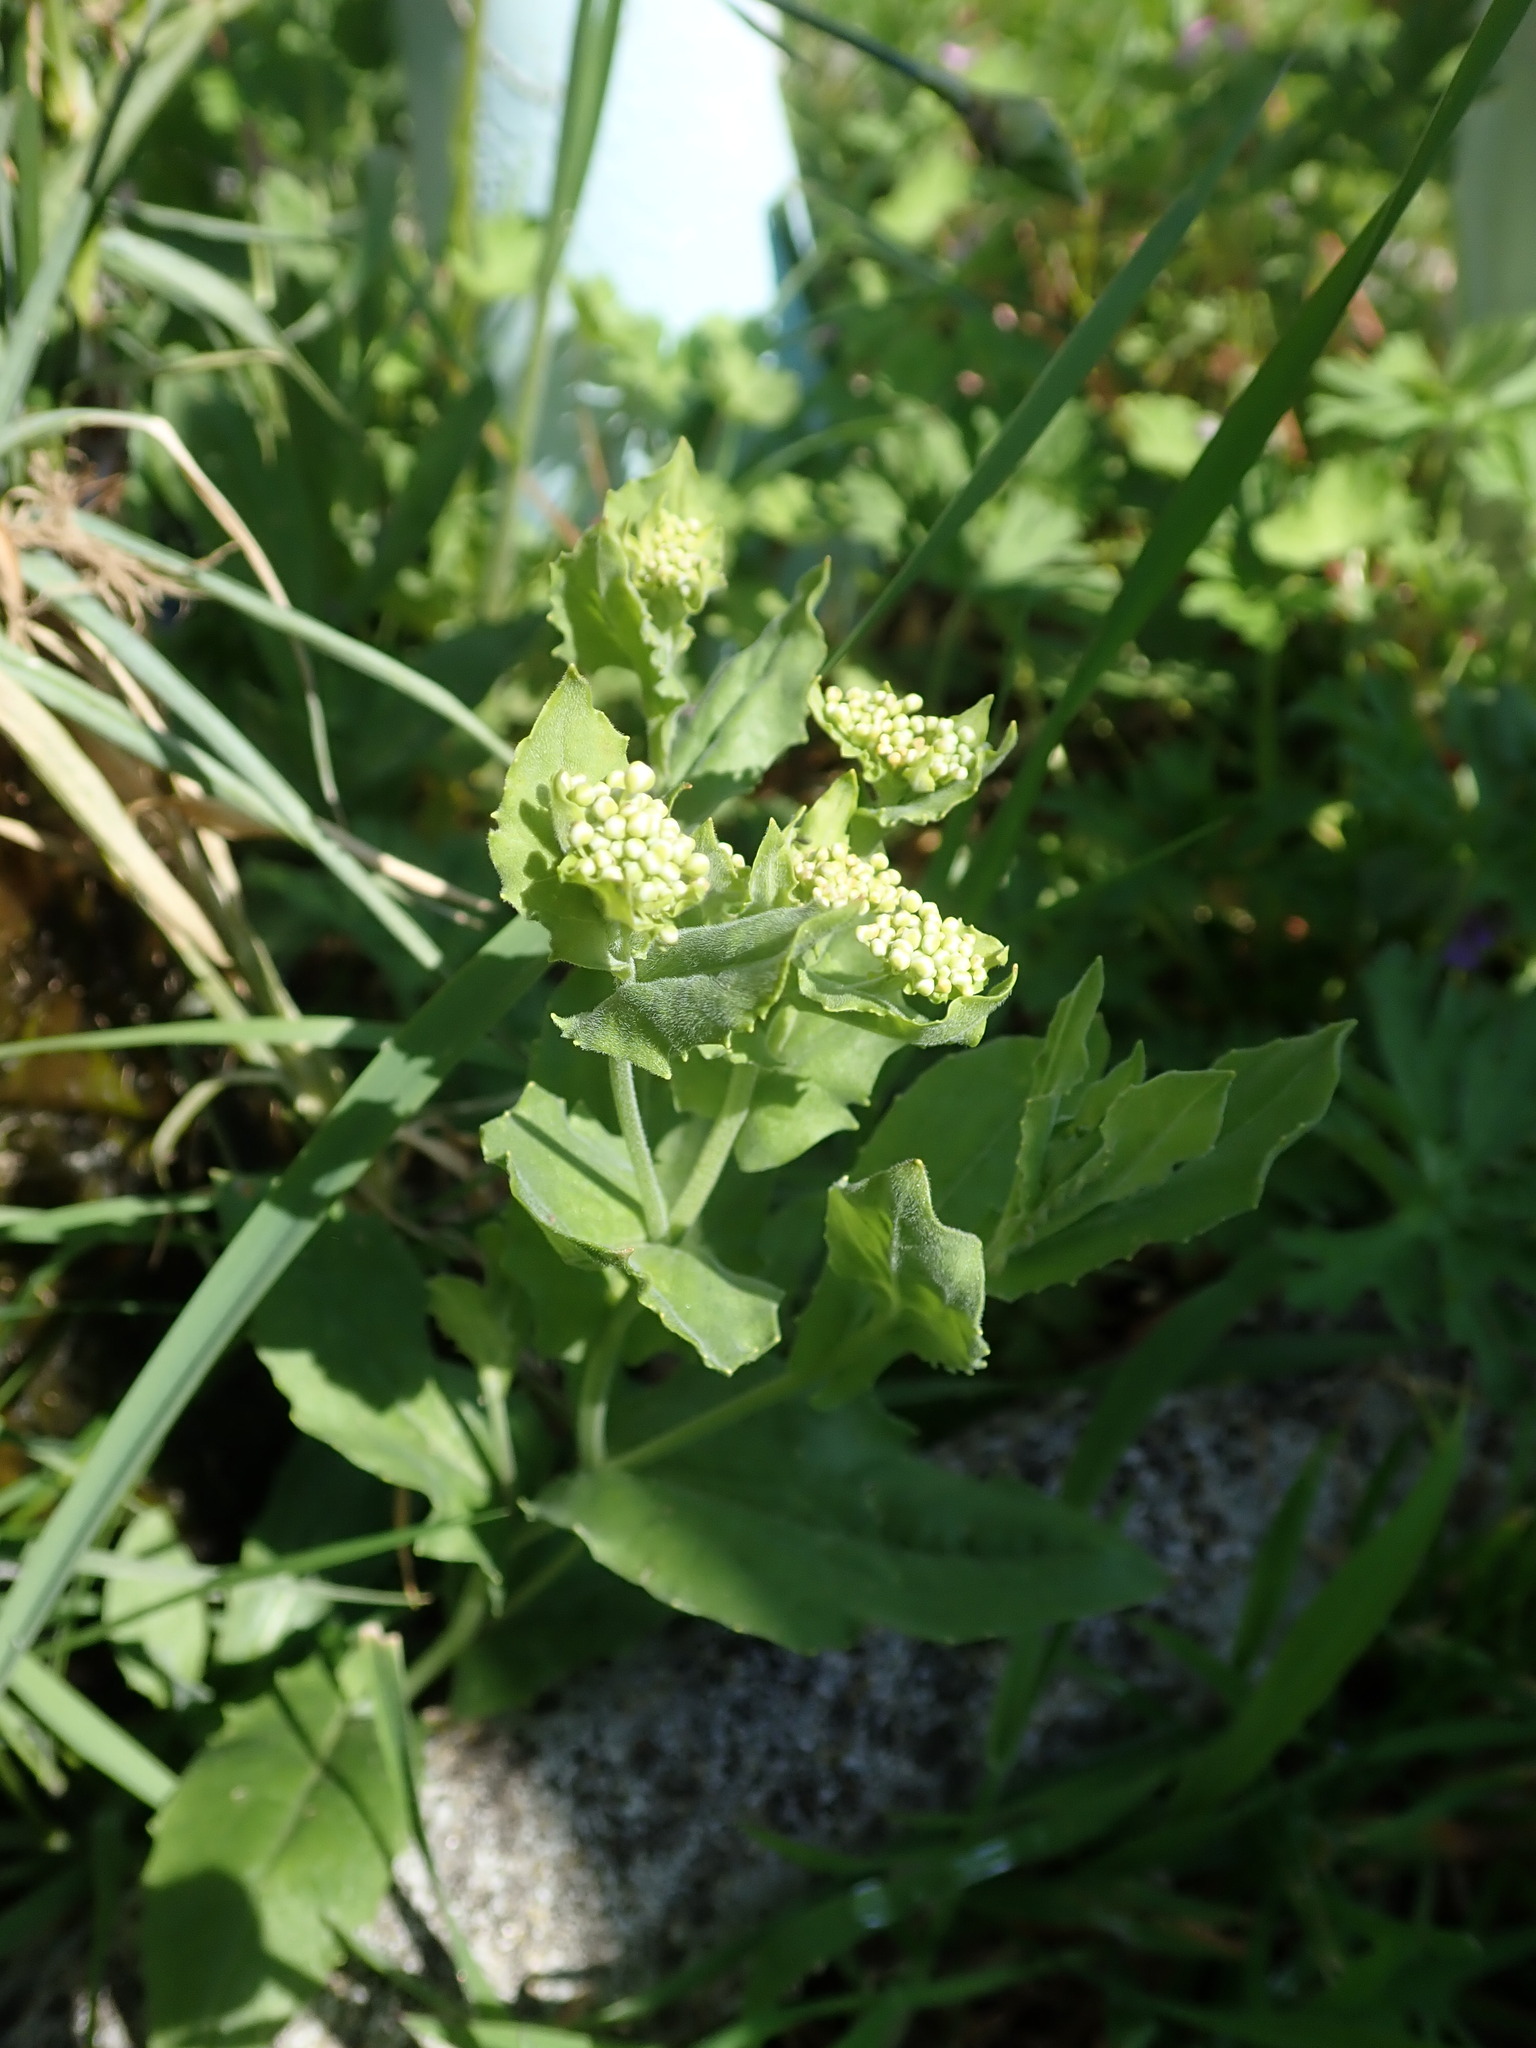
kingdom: Plantae
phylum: Tracheophyta
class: Magnoliopsida
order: Brassicales
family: Brassicaceae
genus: Lepidium
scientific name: Lepidium draba
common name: Hoary cress
